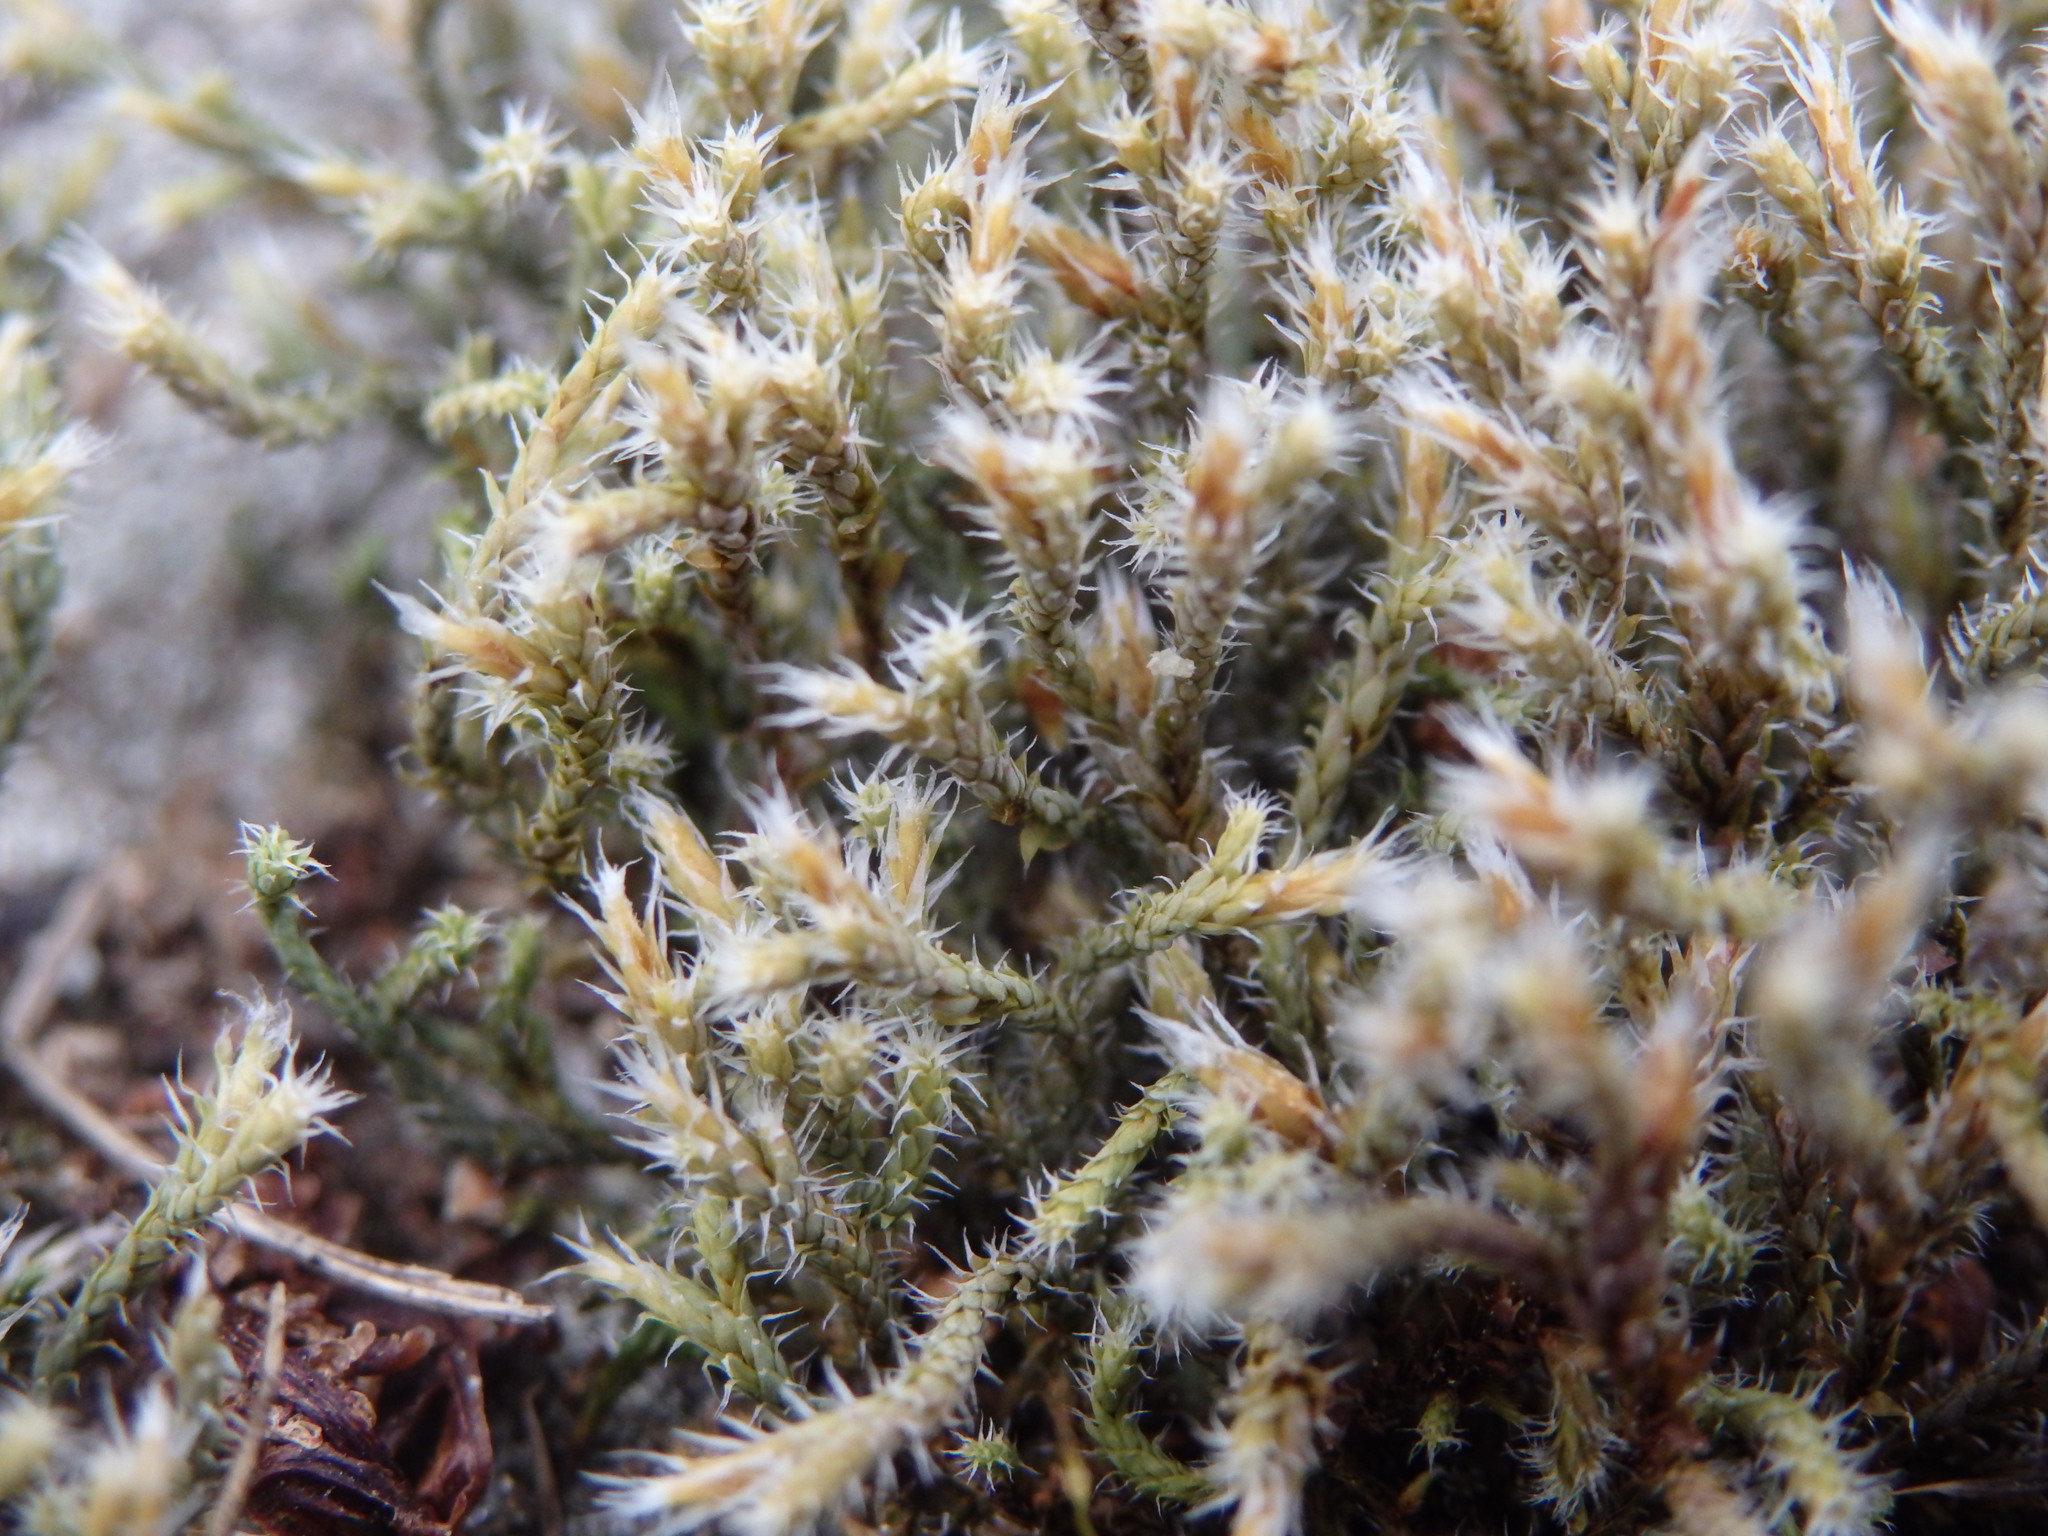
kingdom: Plantae
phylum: Bryophyta
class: Bryopsida
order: Hedwigiales
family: Hedwigiaceae
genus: Hedwigia
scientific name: Hedwigia ciliata
